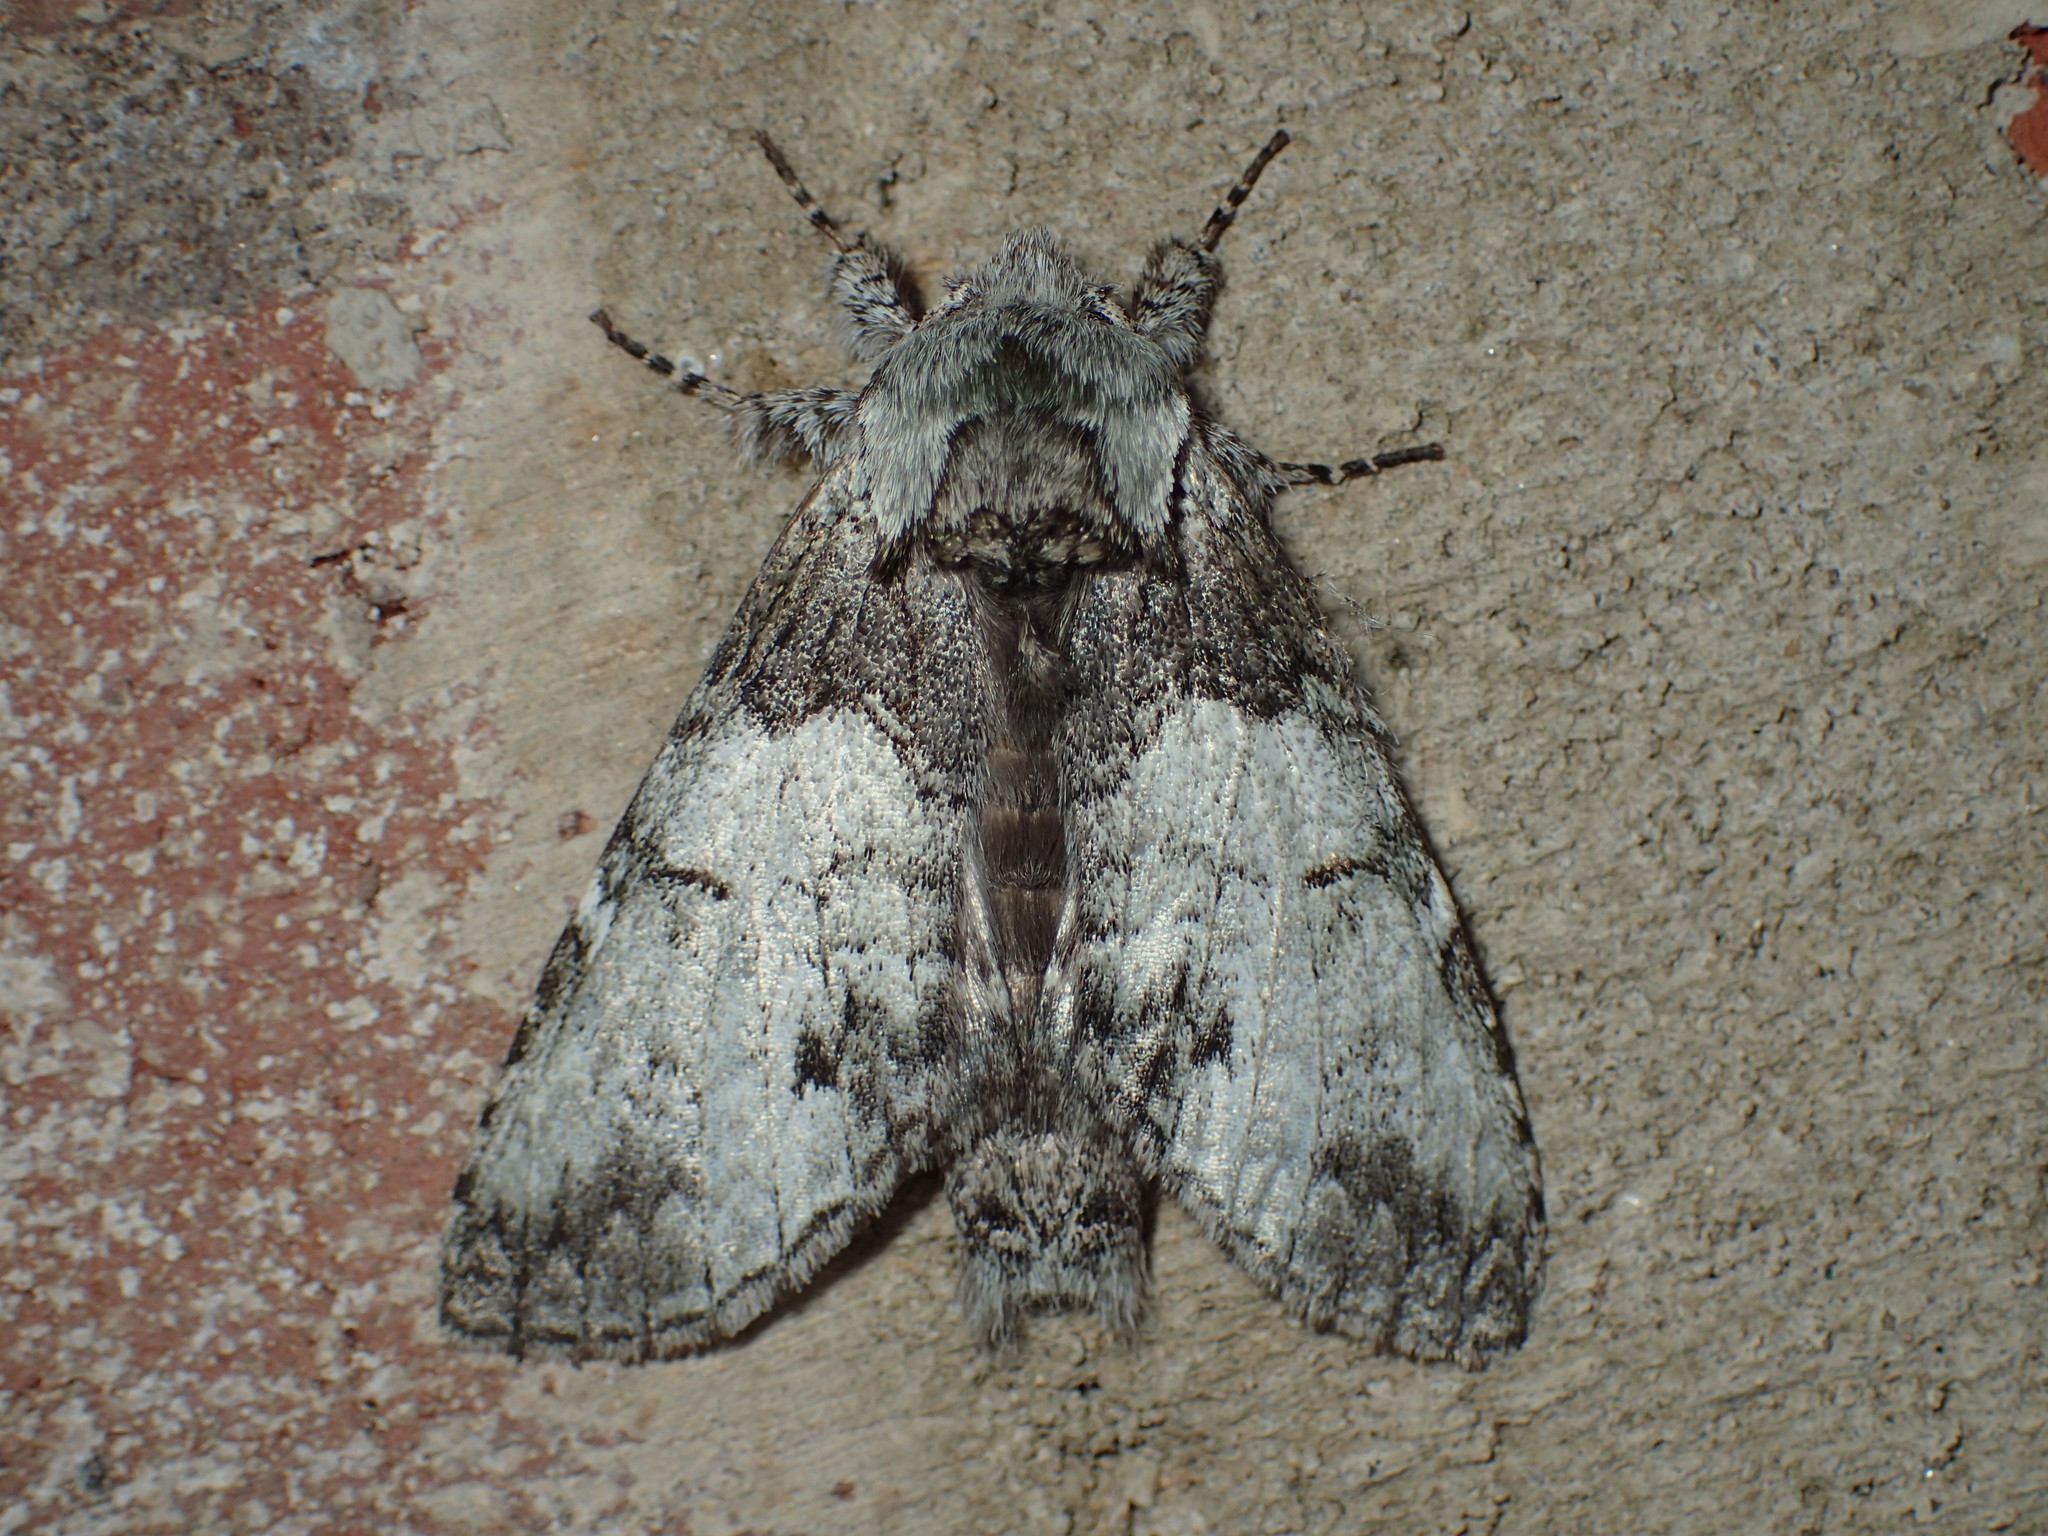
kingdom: Animalia
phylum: Arthropoda
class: Insecta
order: Lepidoptera
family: Notodontidae
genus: Macrurocampa
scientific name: Macrurocampa marthesia
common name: Mottled prominent
